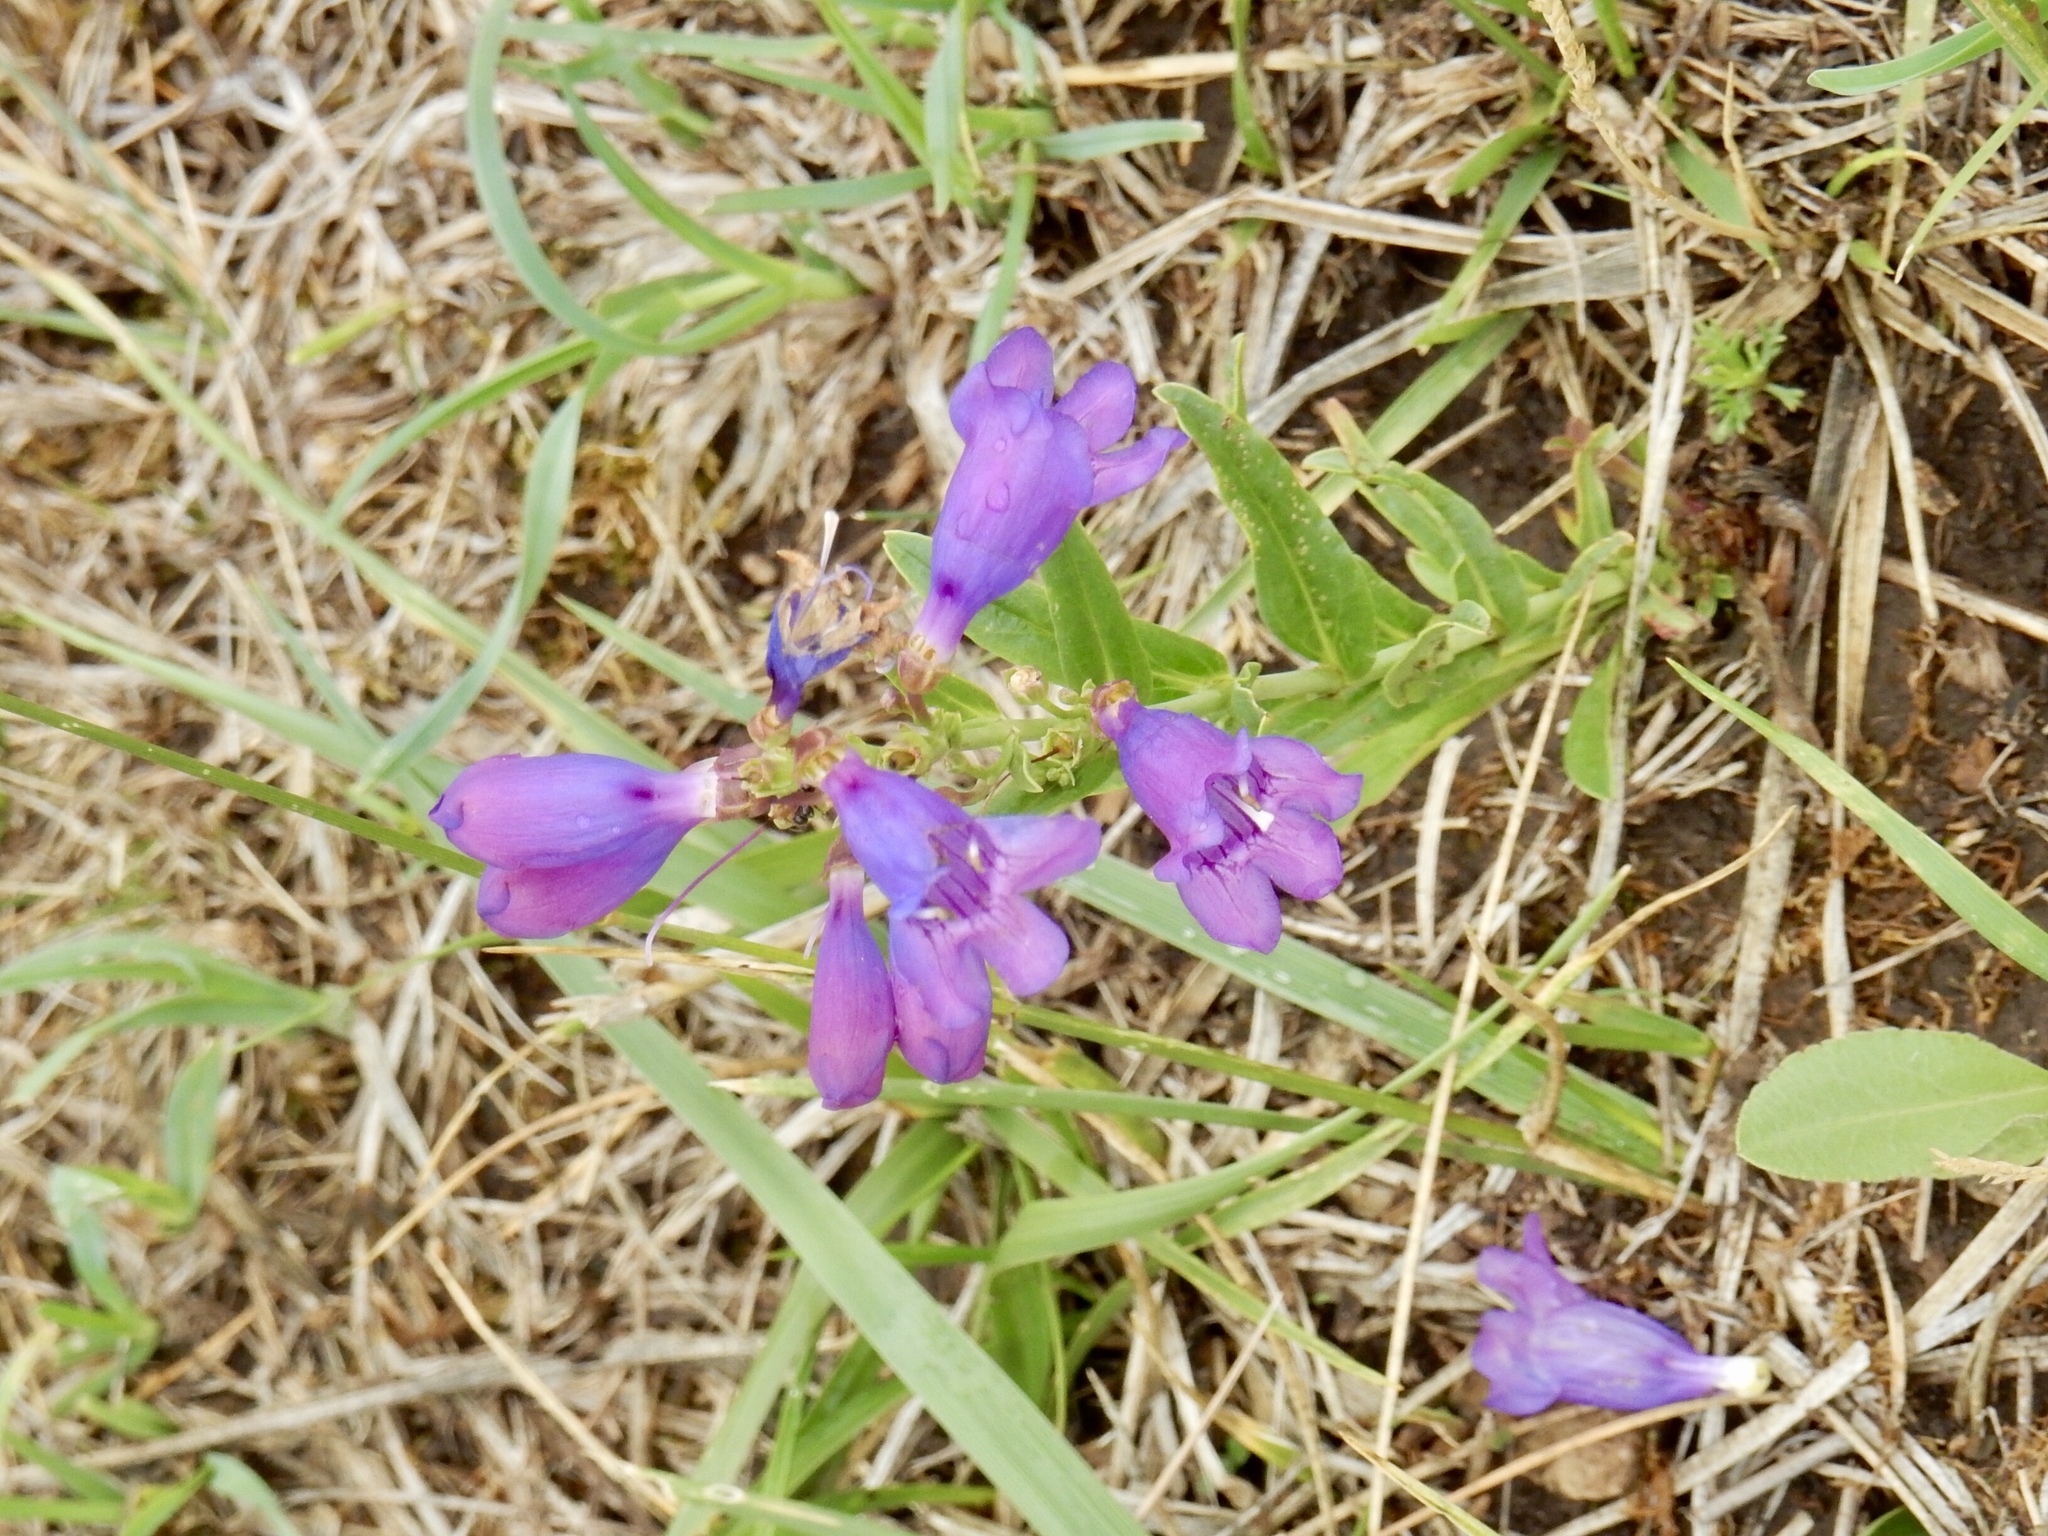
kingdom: Plantae
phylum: Tracheophyta
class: Magnoliopsida
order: Lamiales
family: Plantaginaceae
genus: Penstemon
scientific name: Penstemon neomexicanus
